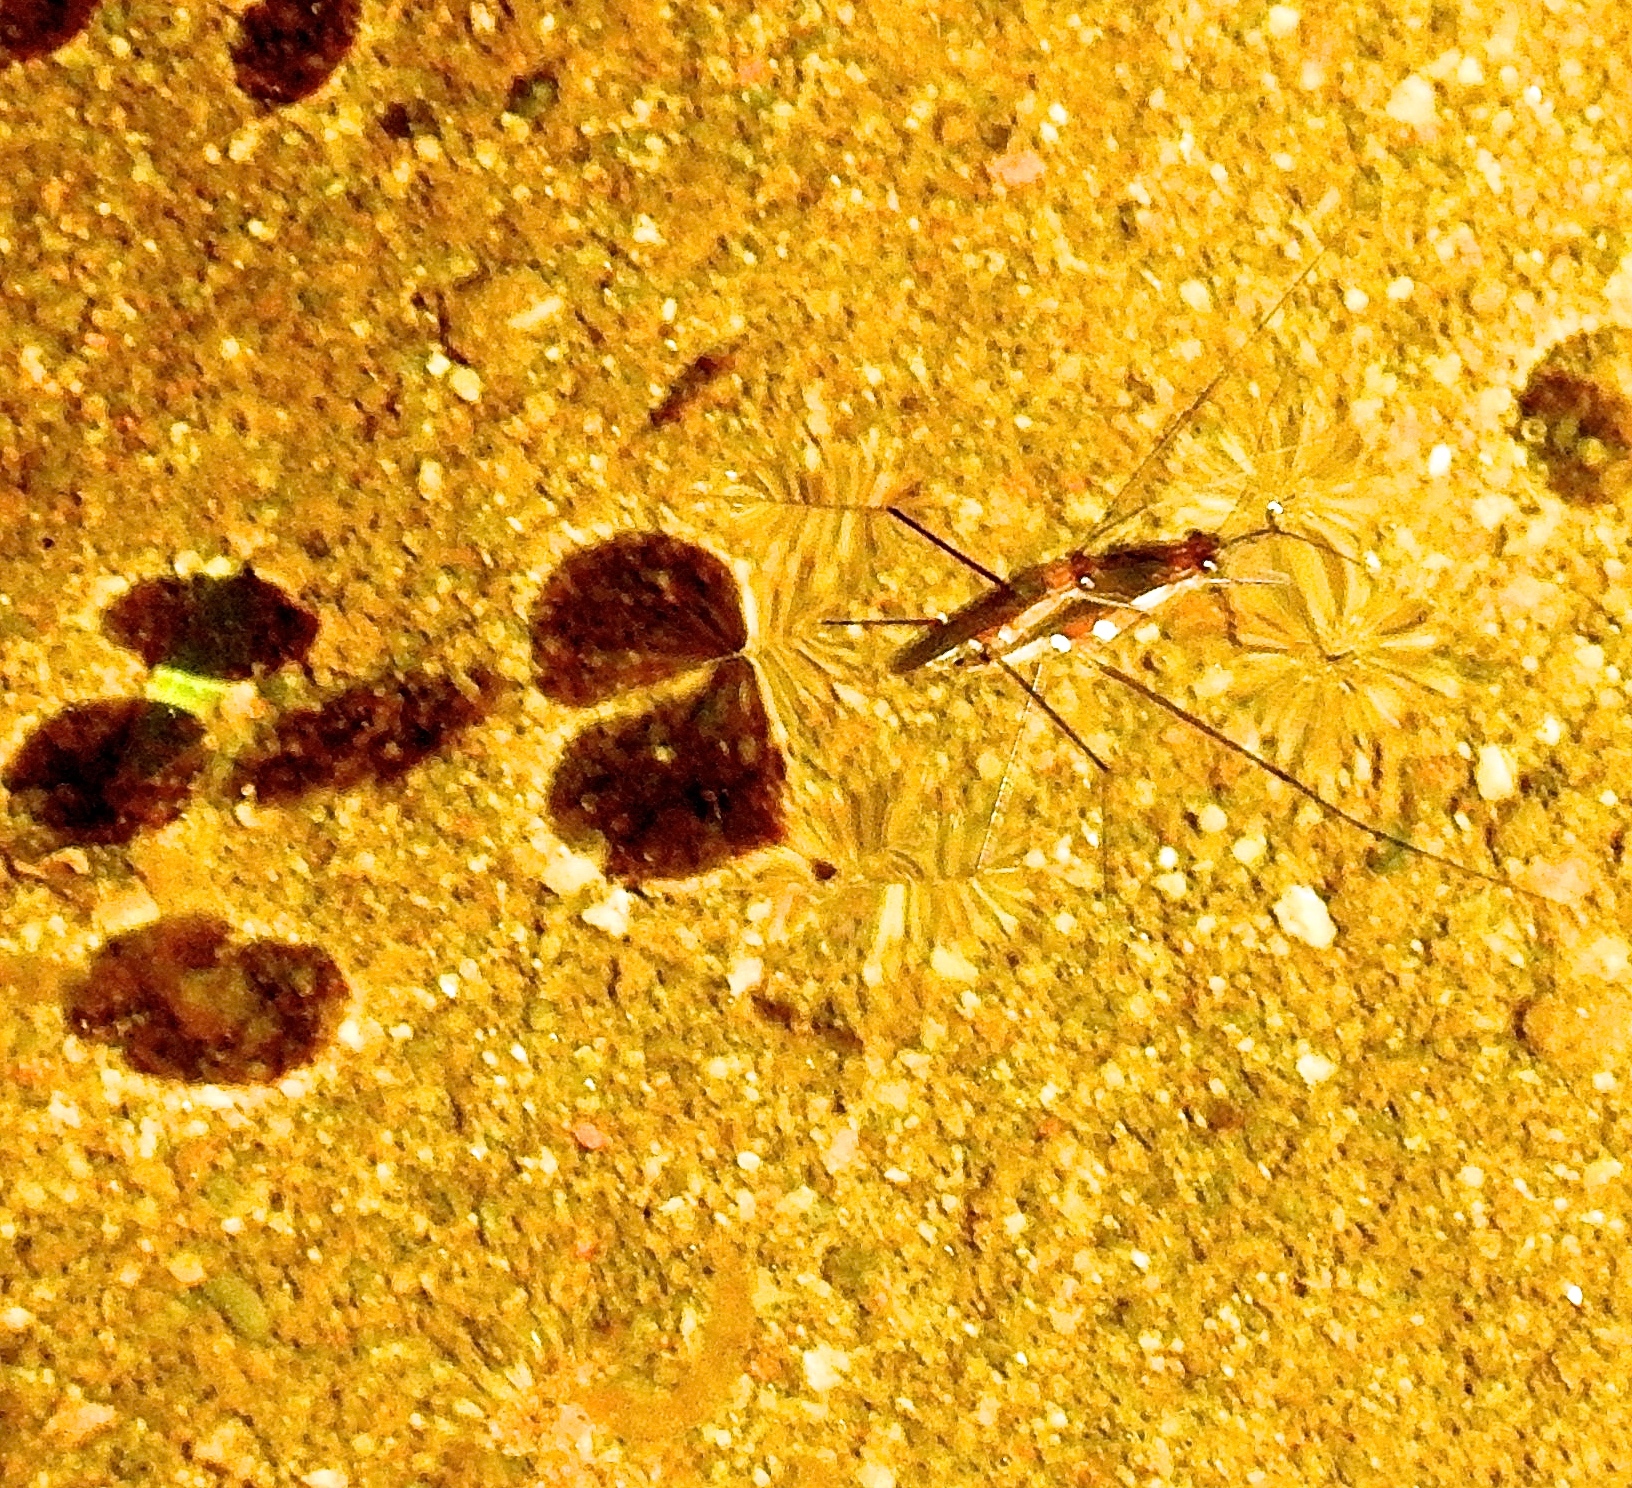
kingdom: Animalia
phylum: Arthropoda
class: Insecta
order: Hemiptera
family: Gerridae
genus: Tachygerris
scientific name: Tachygerris
